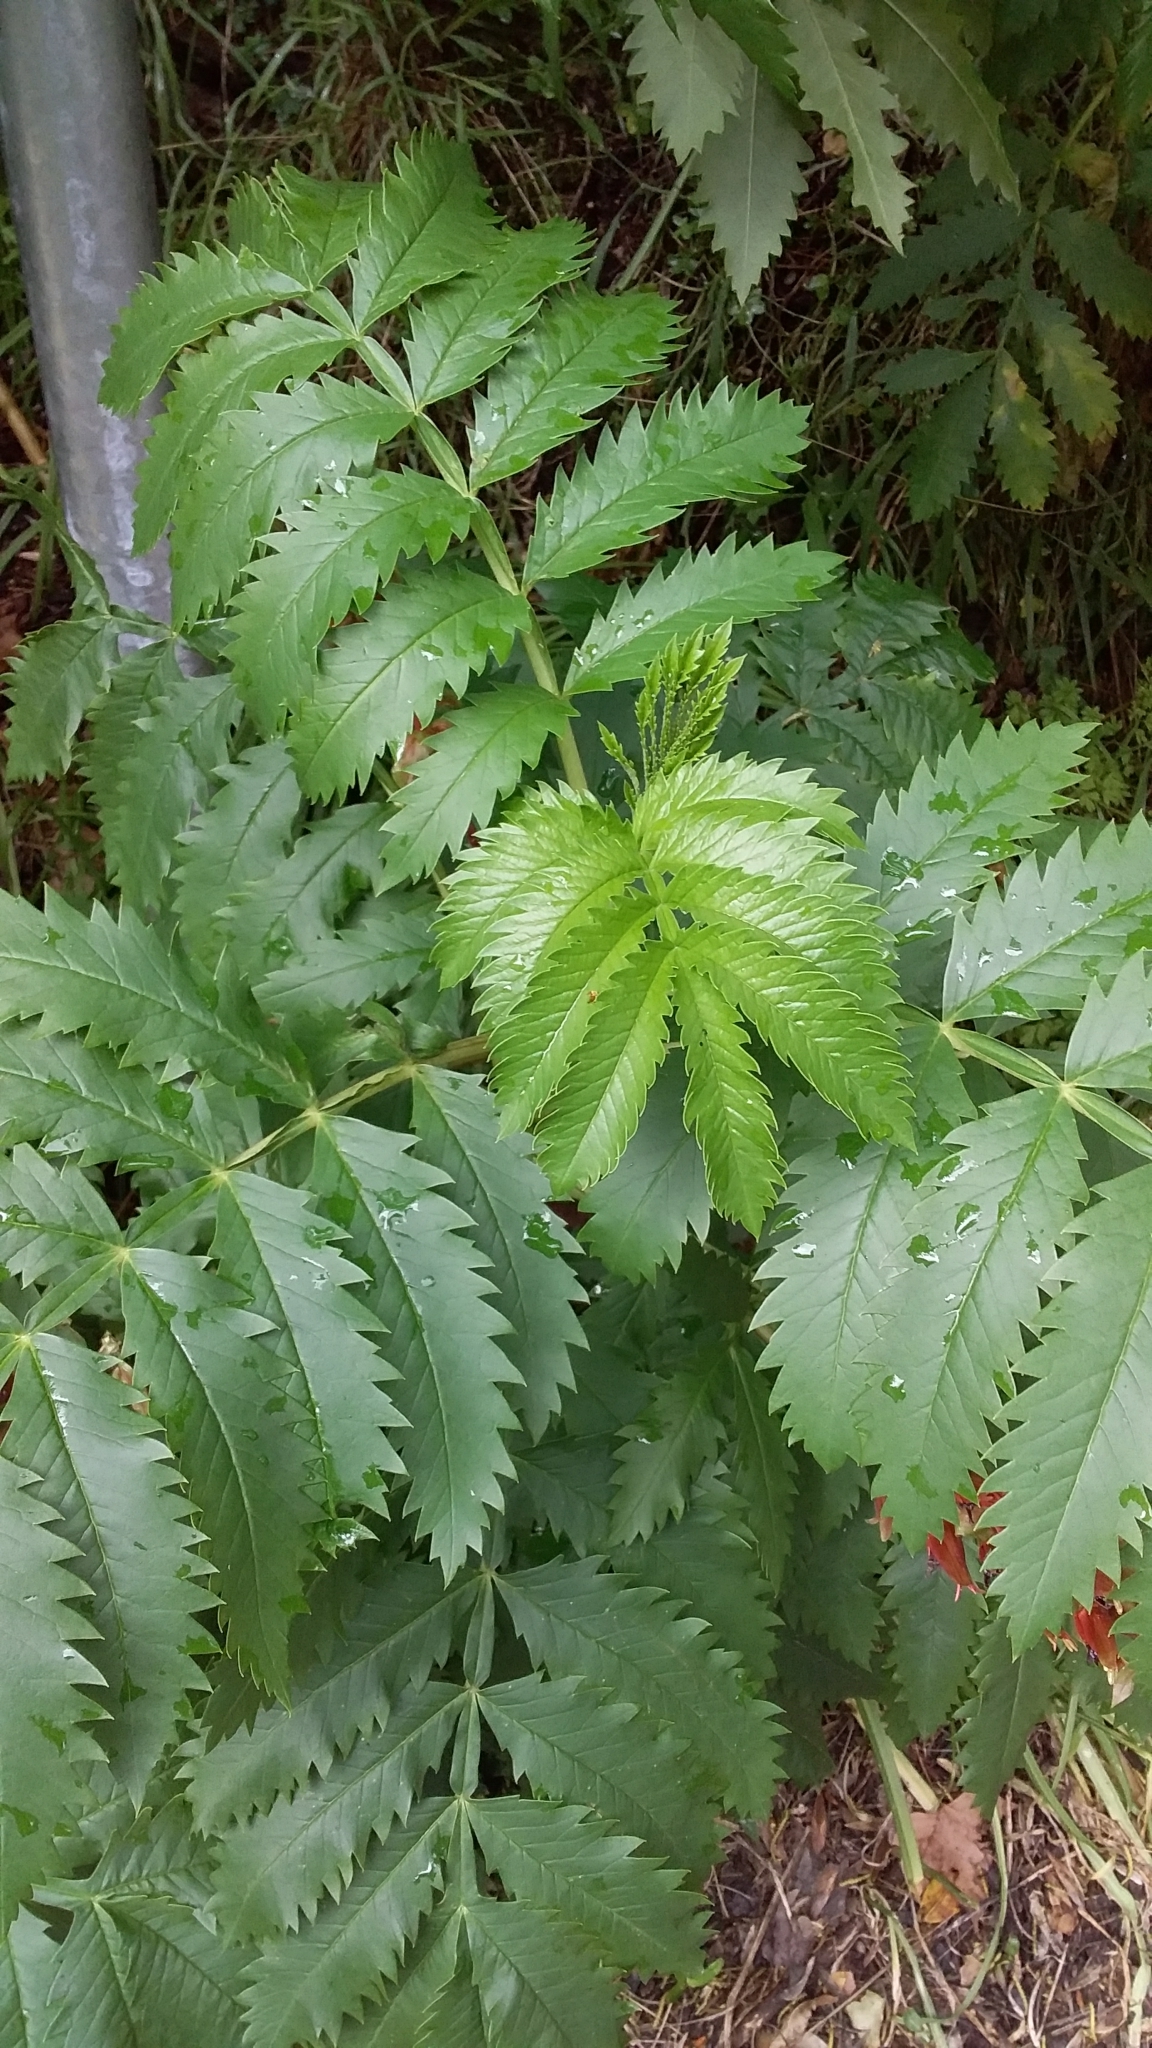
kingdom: Plantae
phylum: Tracheophyta
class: Magnoliopsida
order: Geraniales
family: Melianthaceae
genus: Melianthus
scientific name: Melianthus major
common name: Honey-flower
